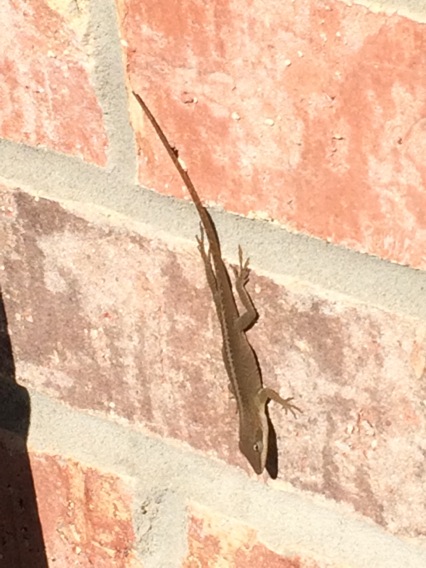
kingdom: Animalia
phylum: Chordata
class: Squamata
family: Dactyloidae
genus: Anolis
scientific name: Anolis carolinensis
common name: Green anole
